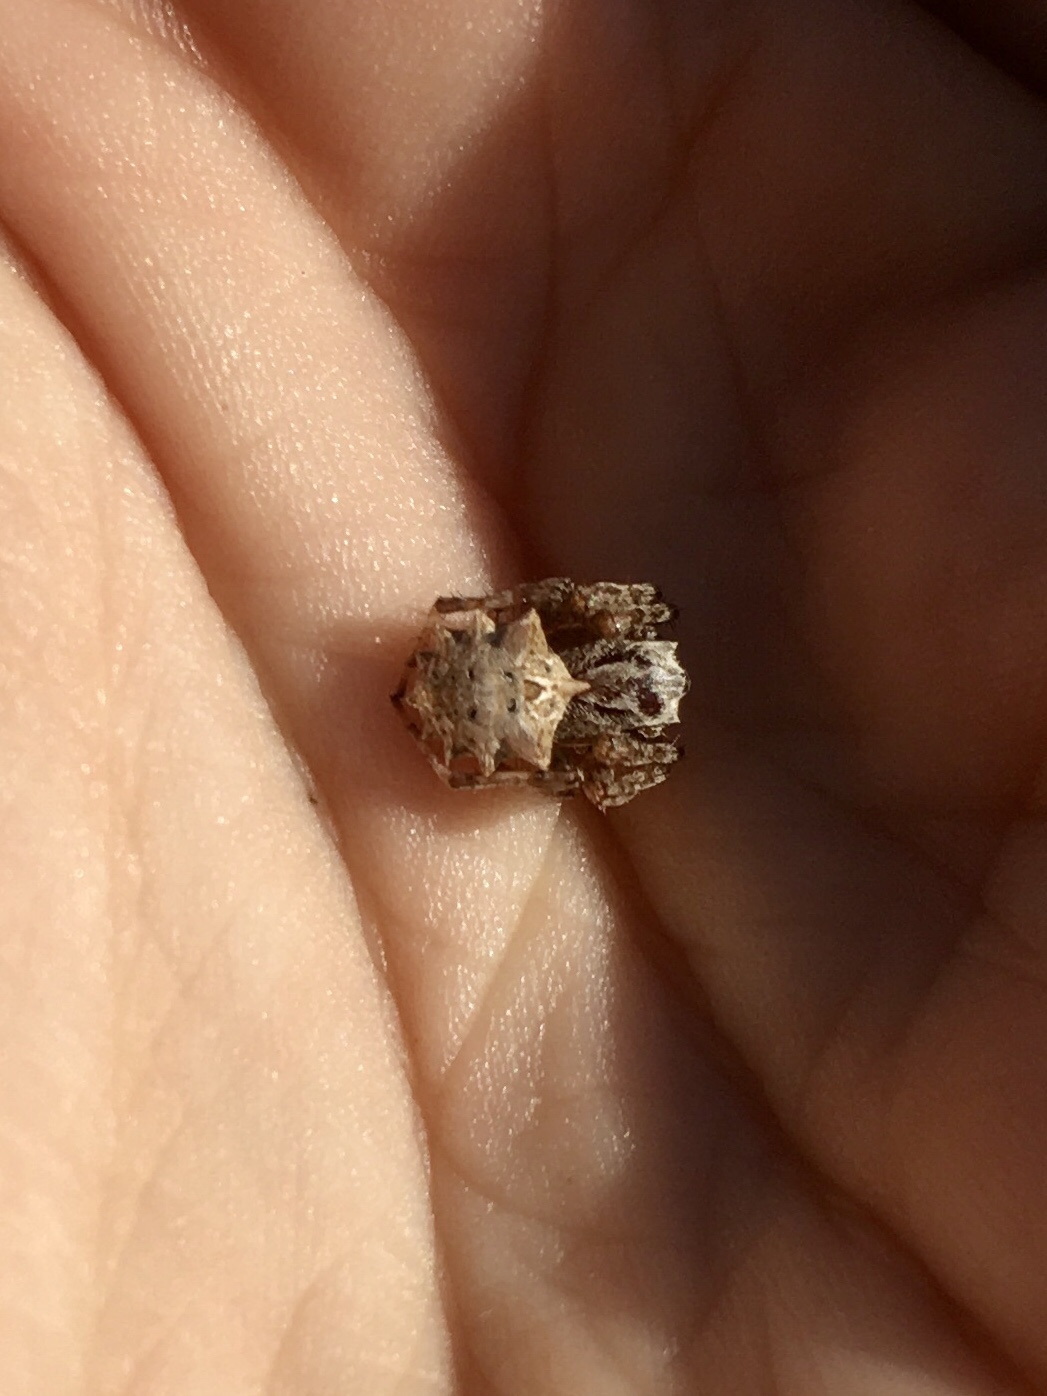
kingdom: Animalia
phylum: Arthropoda
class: Arachnida
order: Araneae
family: Araneidae
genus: Acanthepeira
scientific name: Acanthepeira stellata
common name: Starbellied orbweaver
